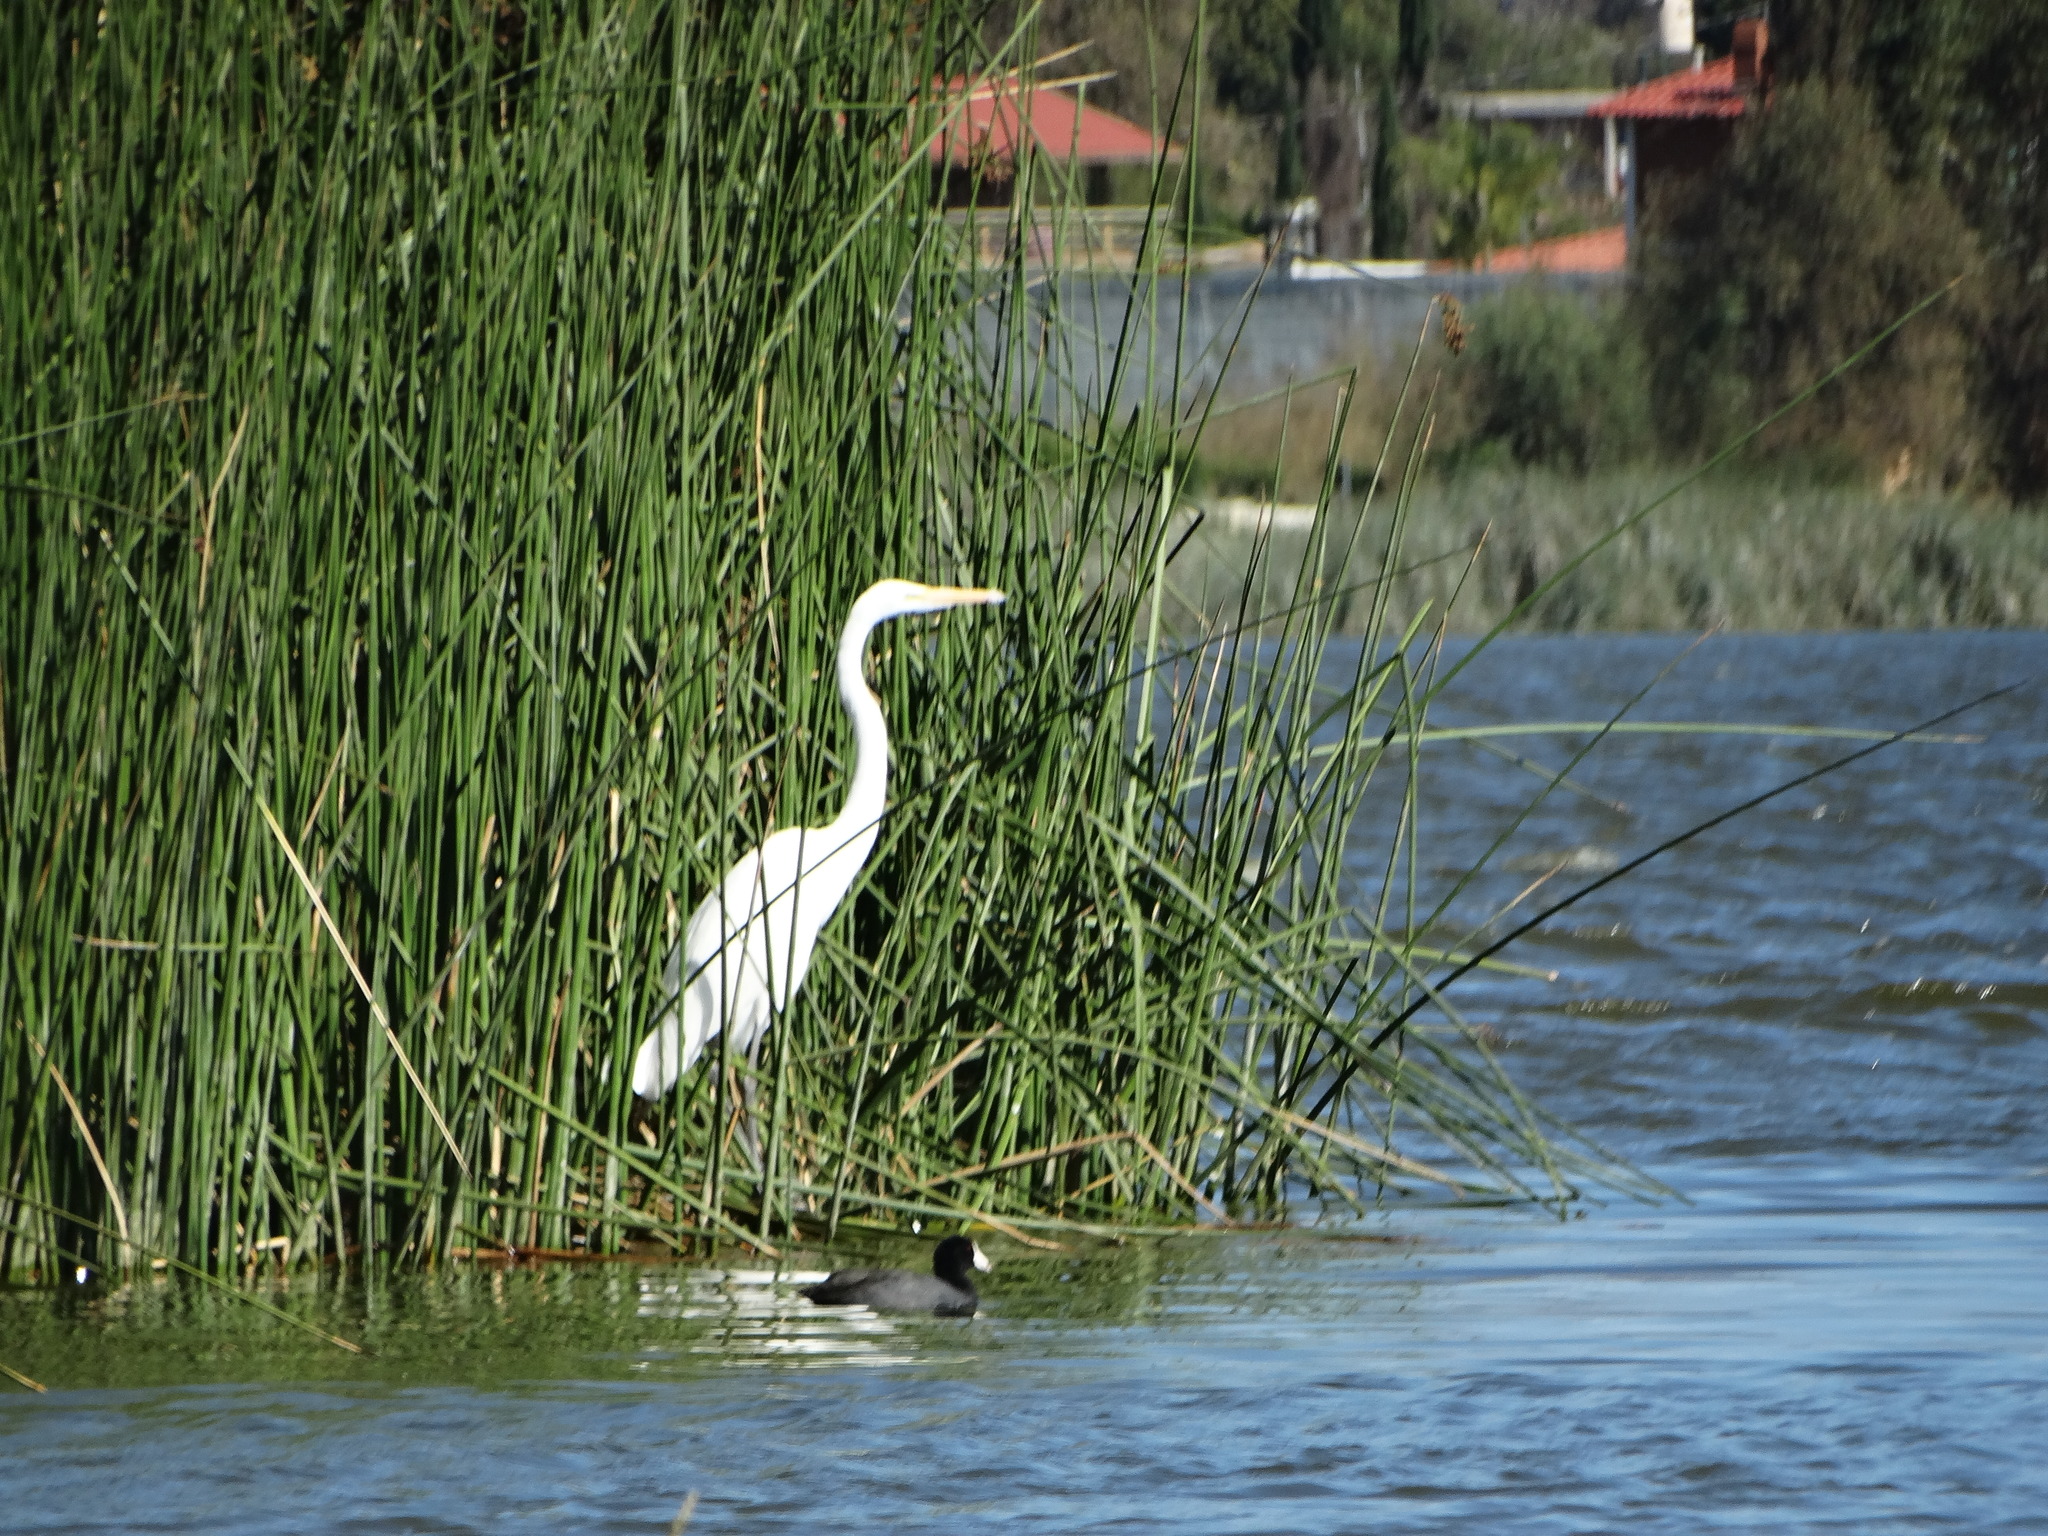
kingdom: Animalia
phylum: Chordata
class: Aves
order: Pelecaniformes
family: Ardeidae
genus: Ardea
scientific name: Ardea alba
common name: Great egret
